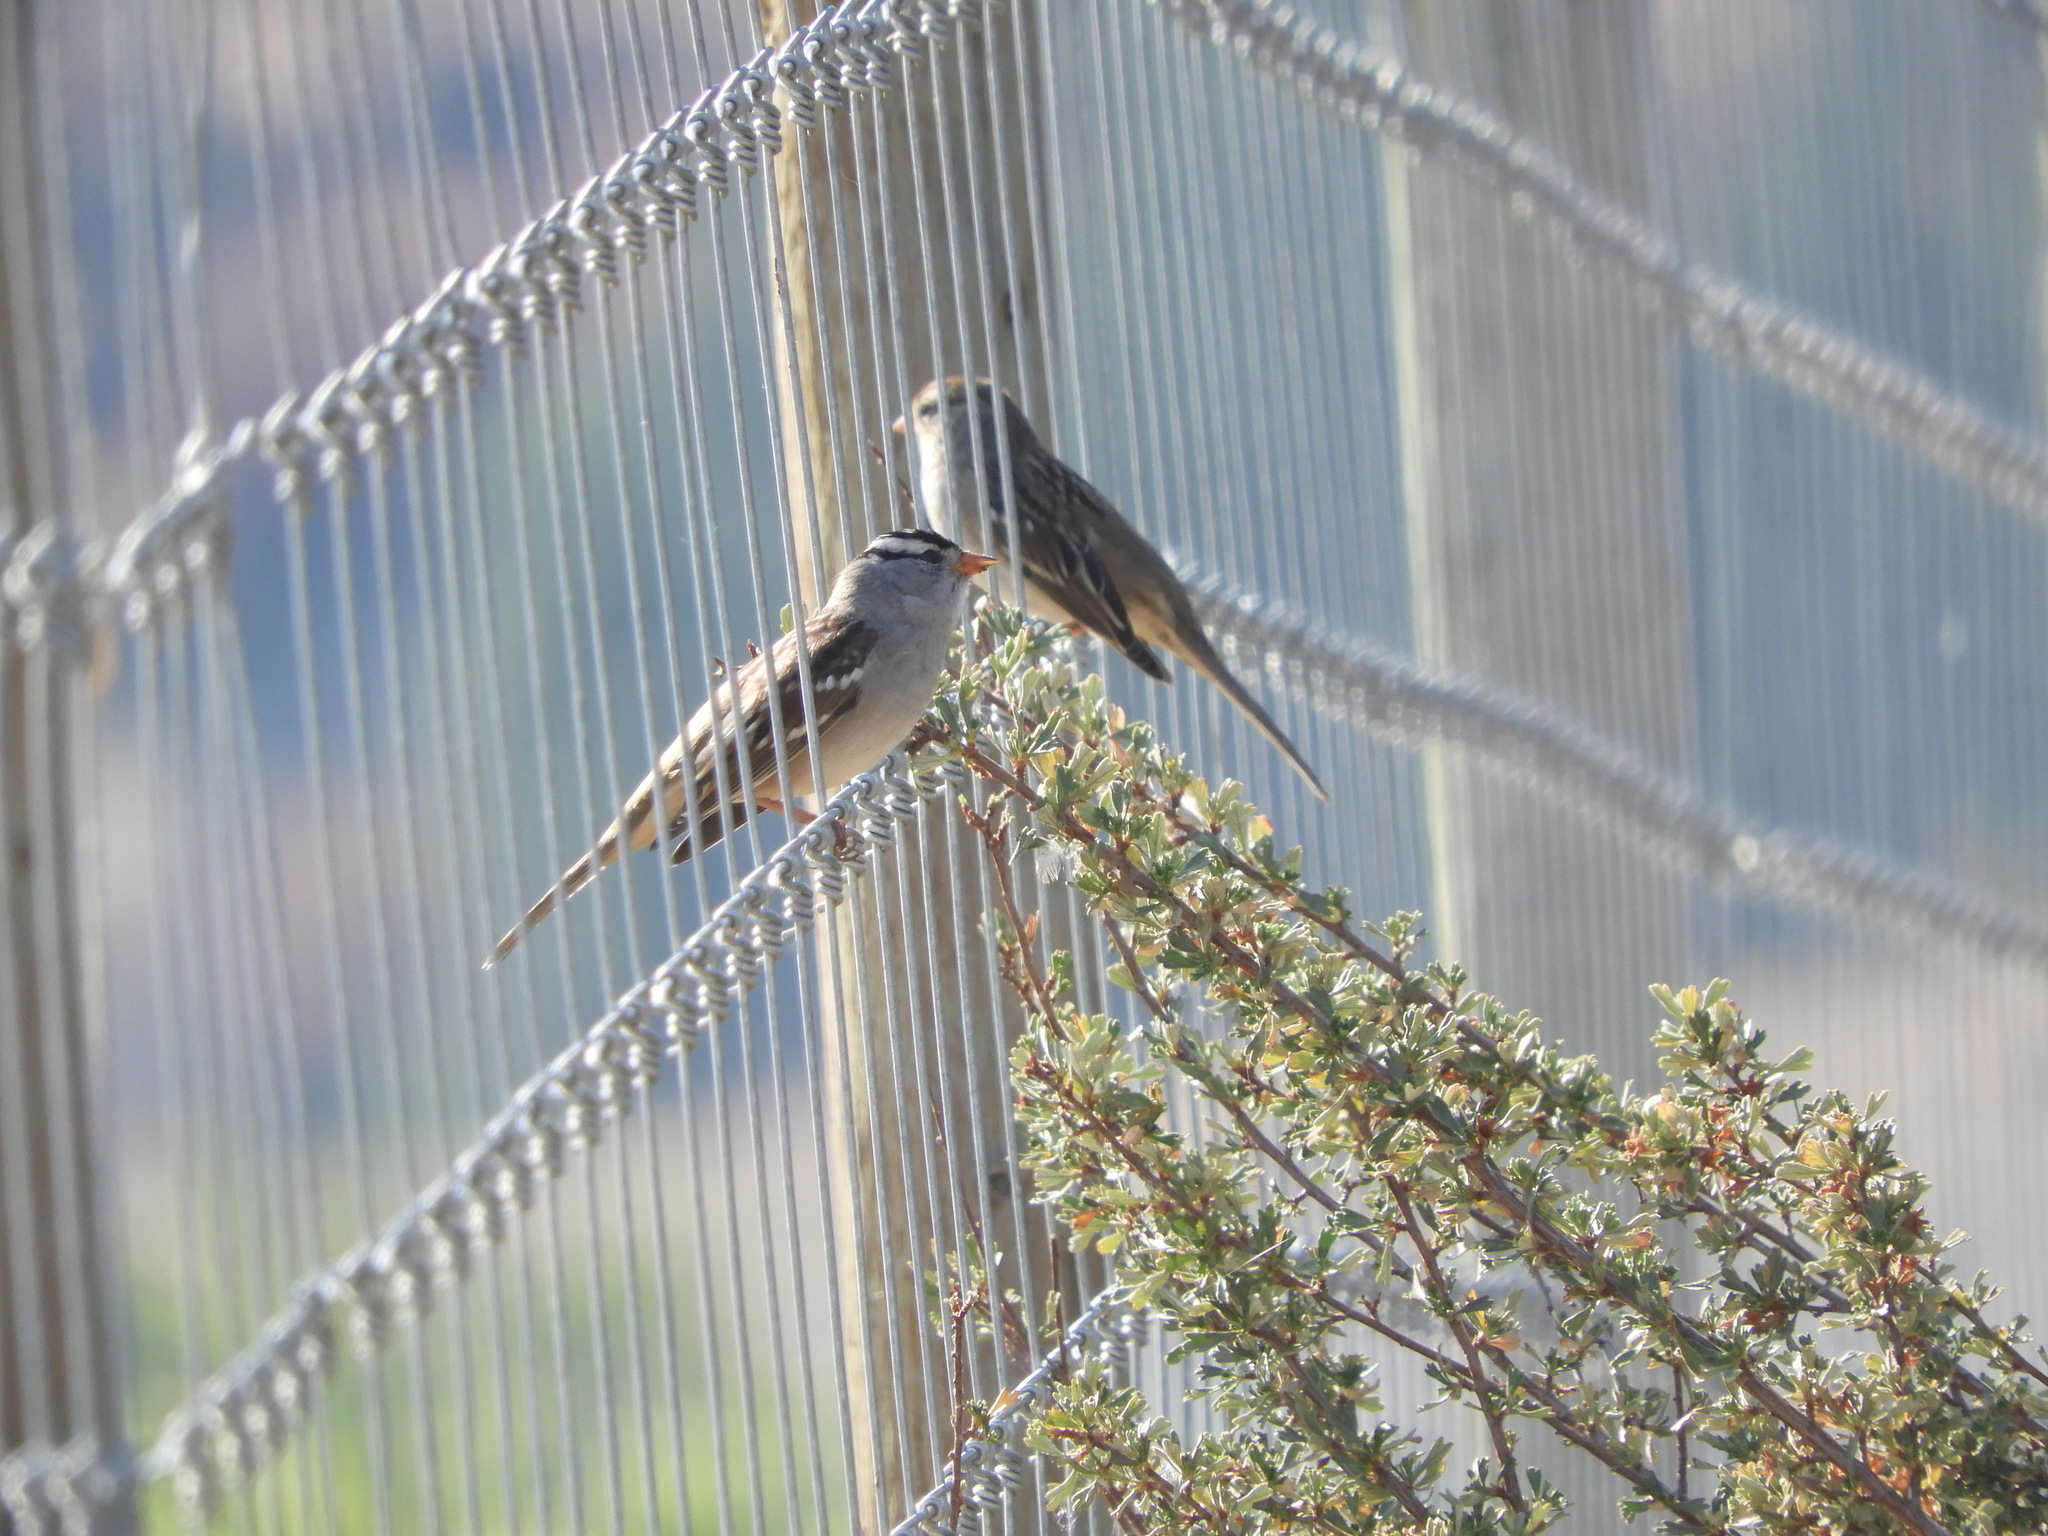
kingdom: Animalia
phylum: Chordata
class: Aves
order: Passeriformes
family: Passerellidae
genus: Zonotrichia
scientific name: Zonotrichia leucophrys
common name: White-crowned sparrow
